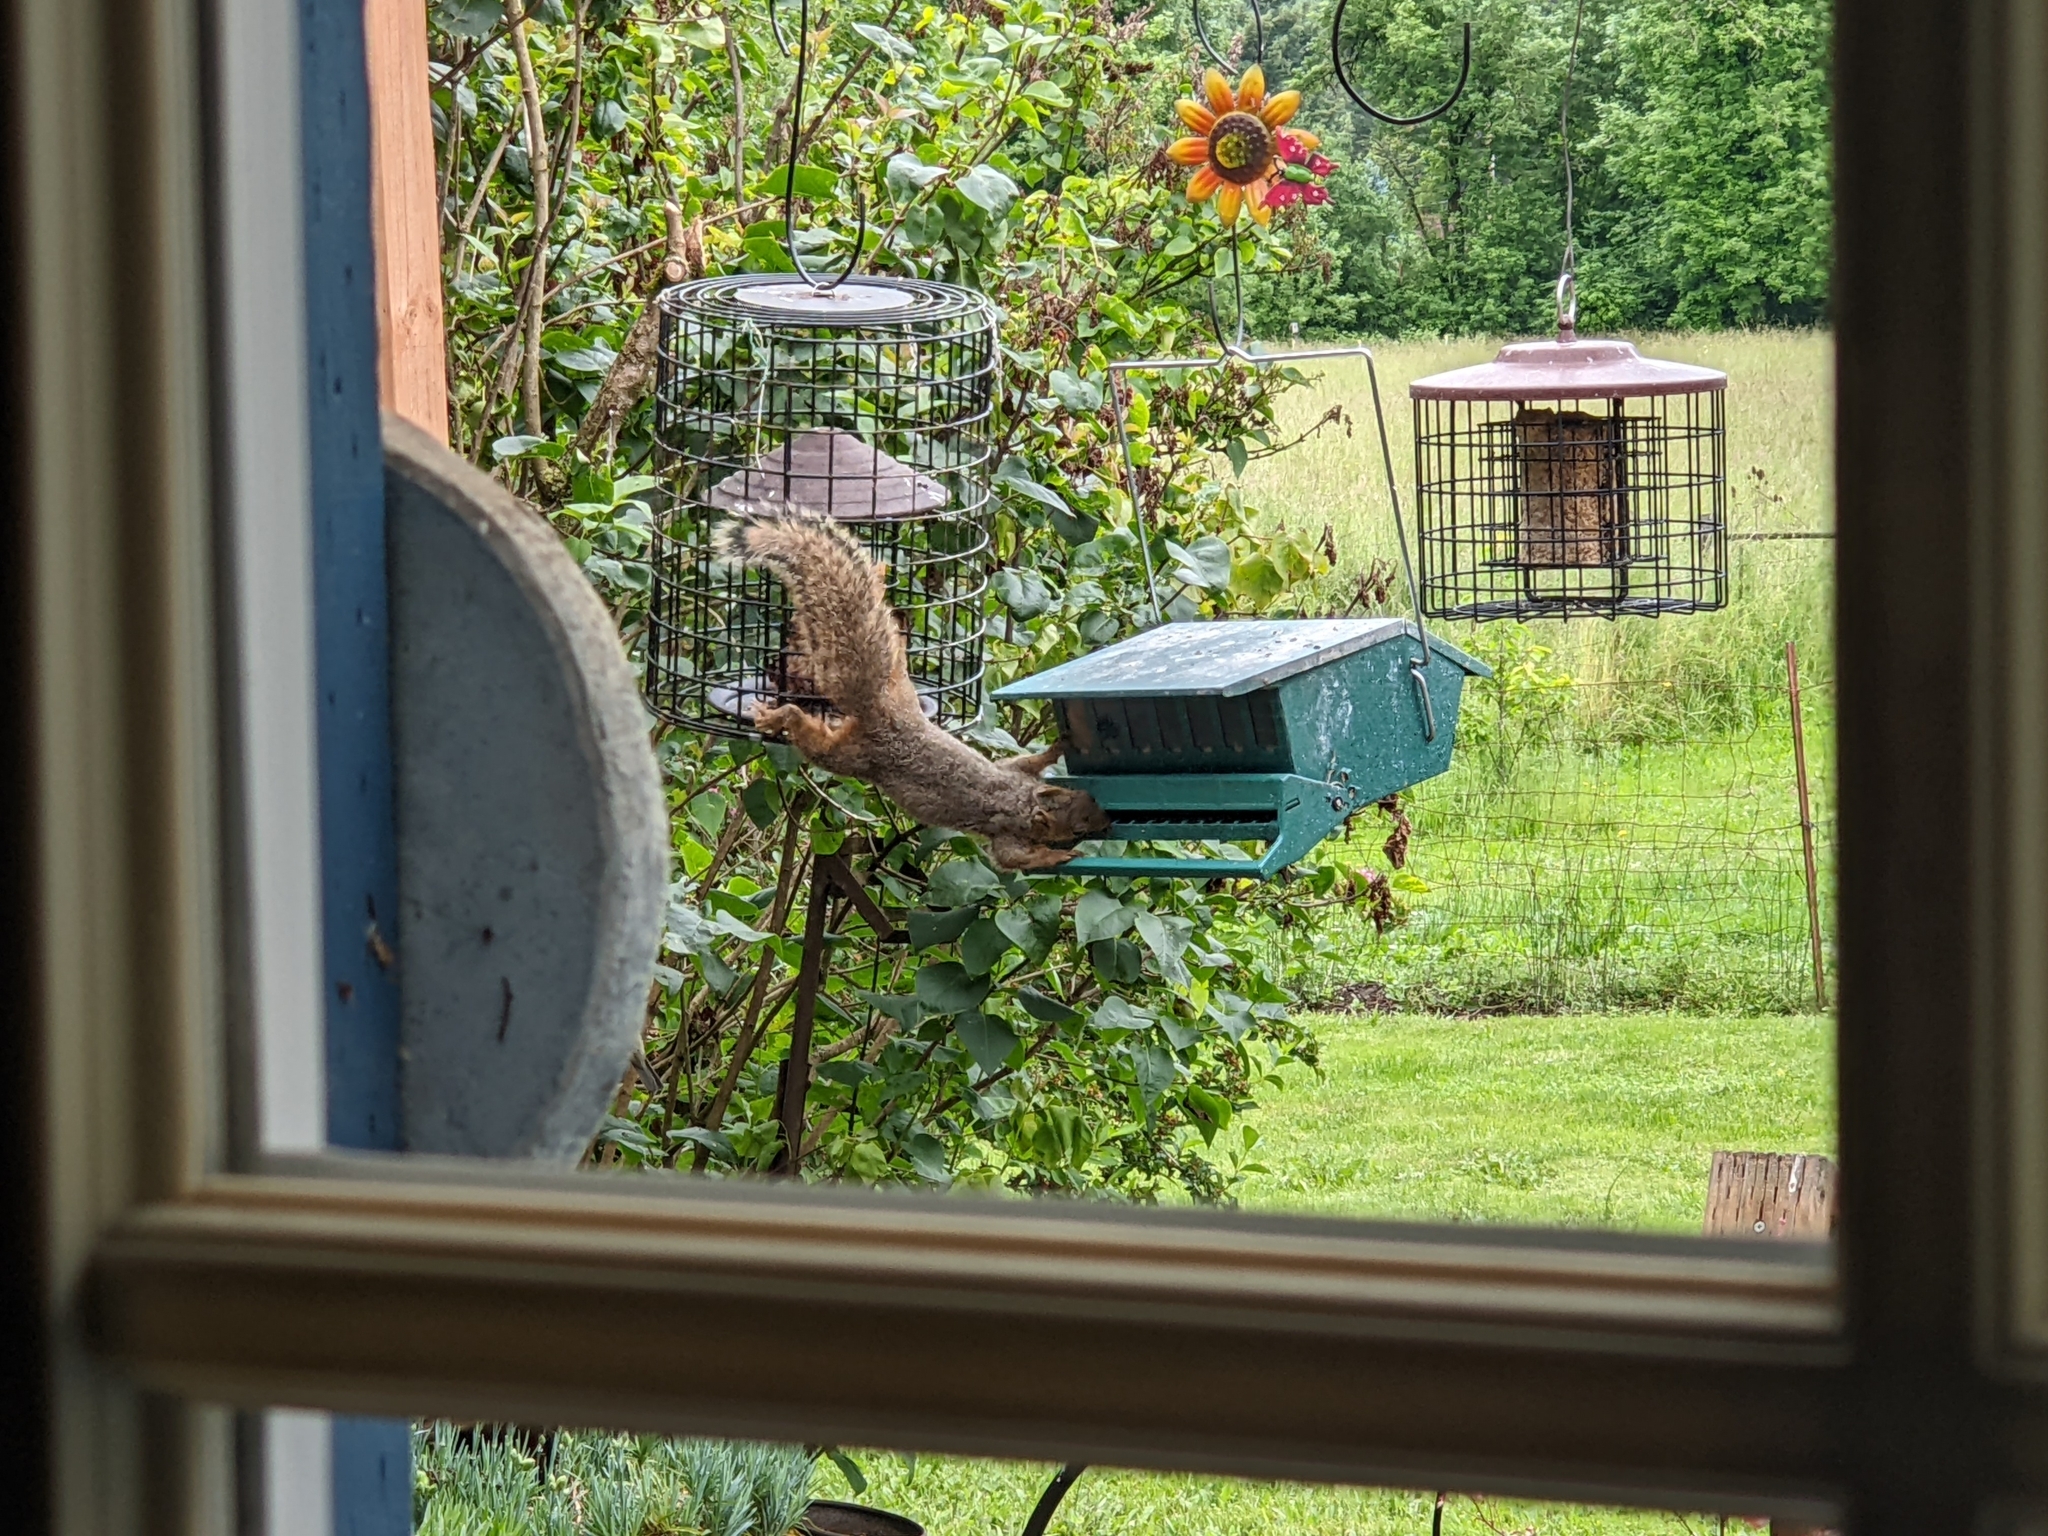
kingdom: Animalia
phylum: Chordata
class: Mammalia
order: Rodentia
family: Sciuridae
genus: Sciurus
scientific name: Sciurus niger
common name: Fox squirrel
